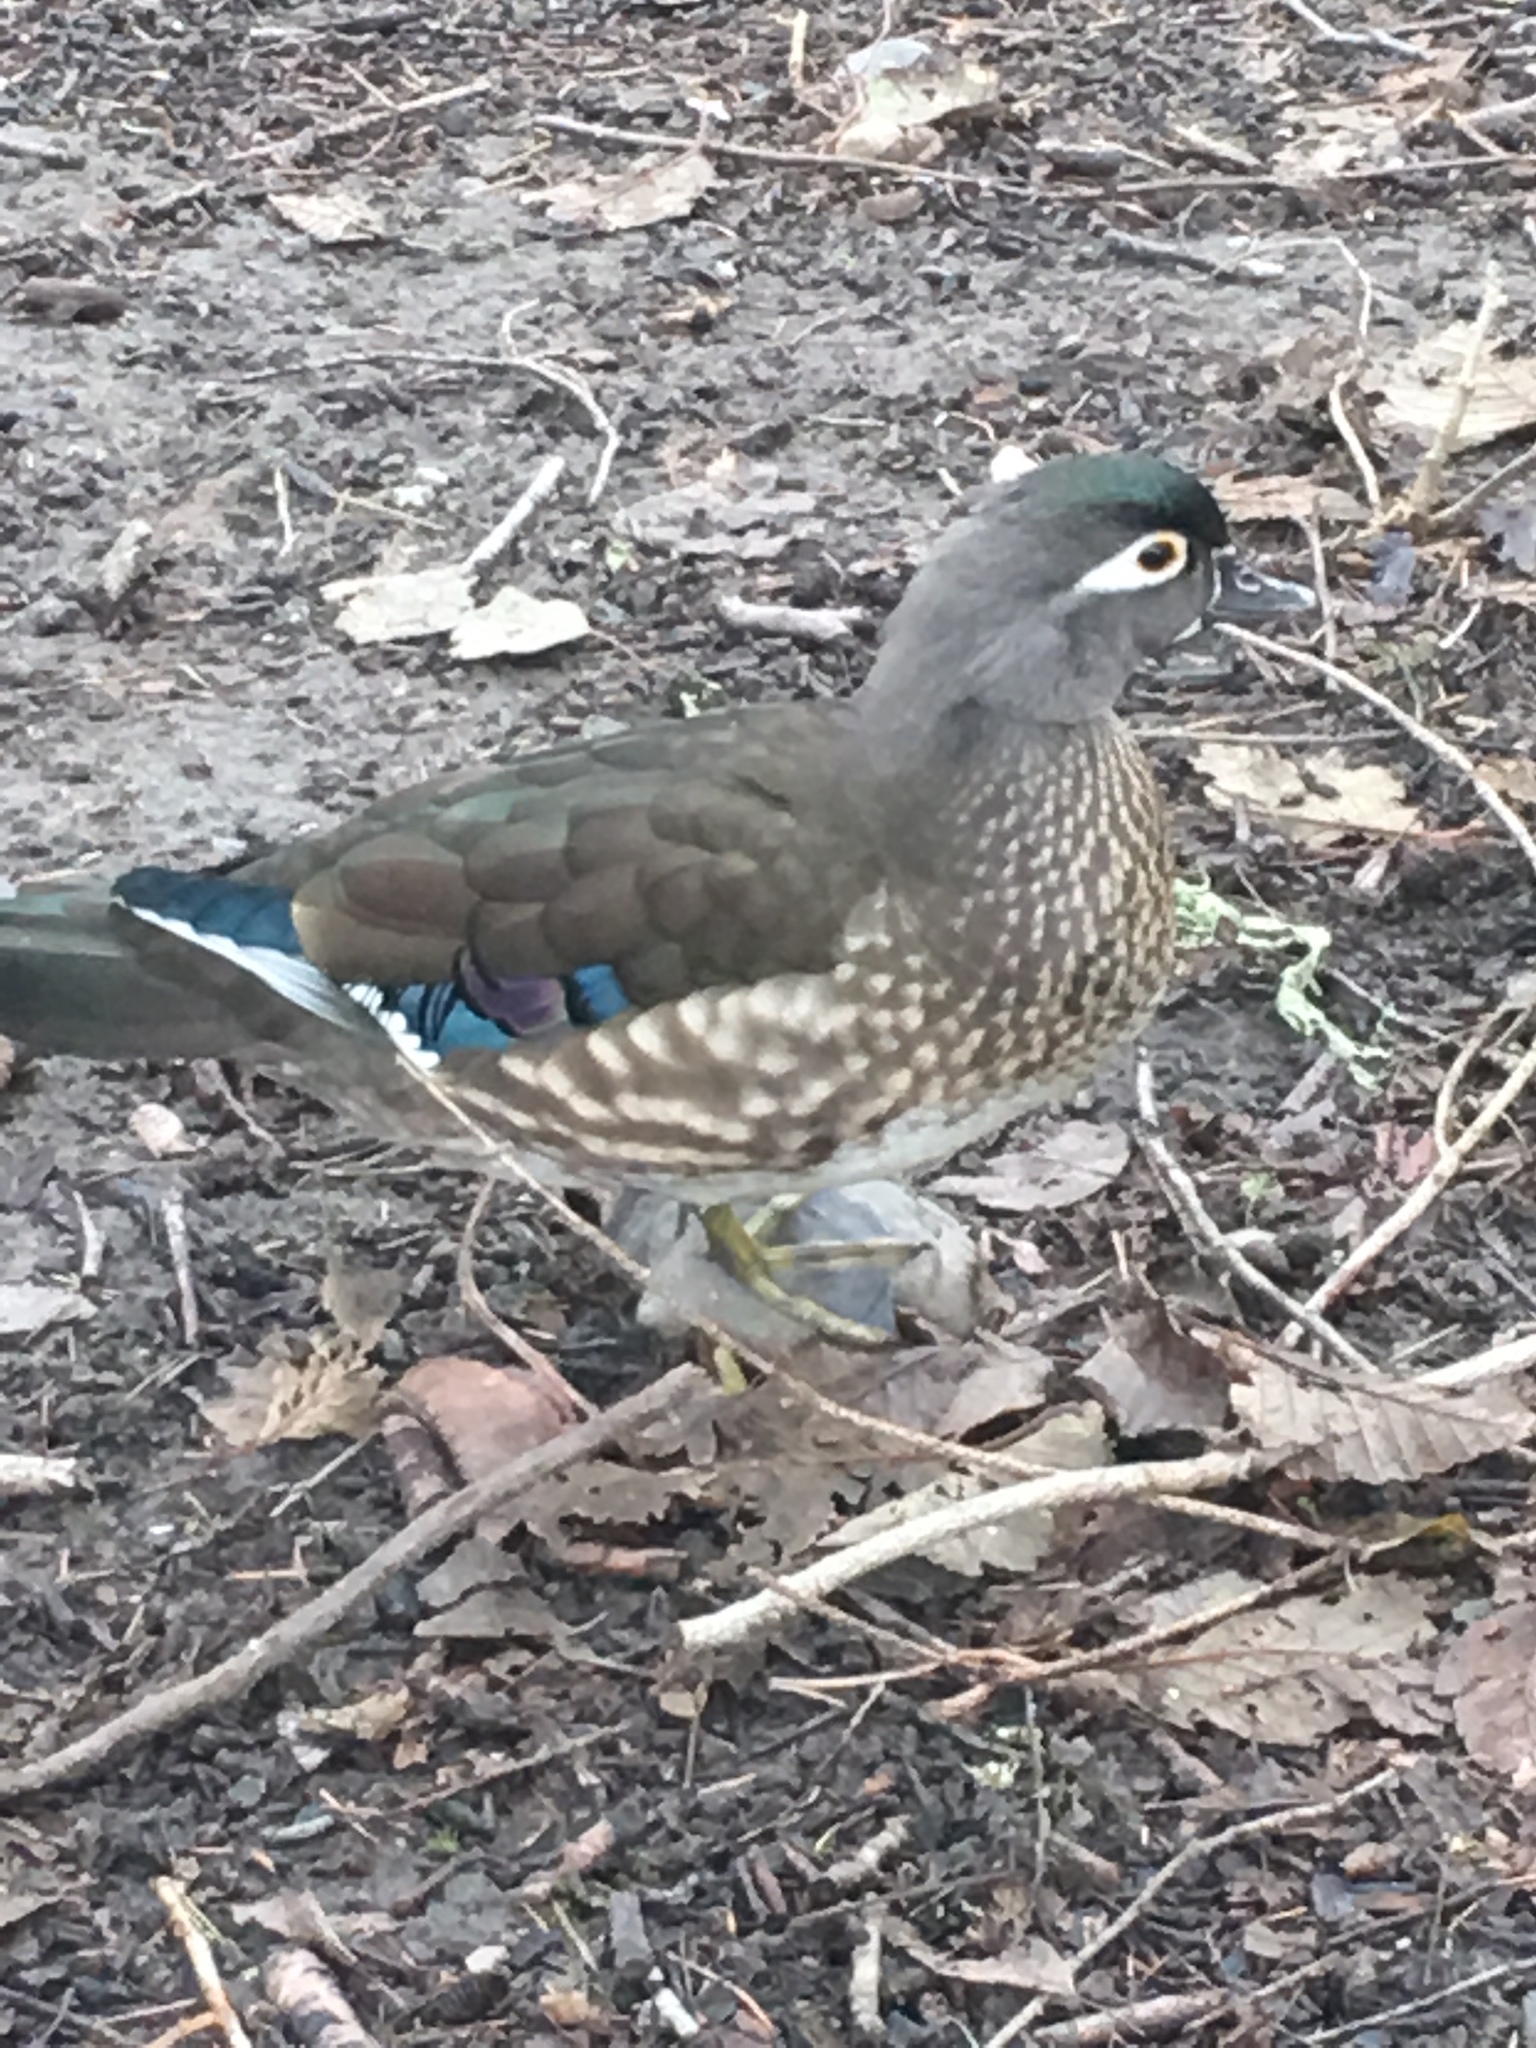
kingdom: Animalia
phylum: Chordata
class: Aves
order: Anseriformes
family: Anatidae
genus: Aix
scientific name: Aix sponsa
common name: Wood duck
